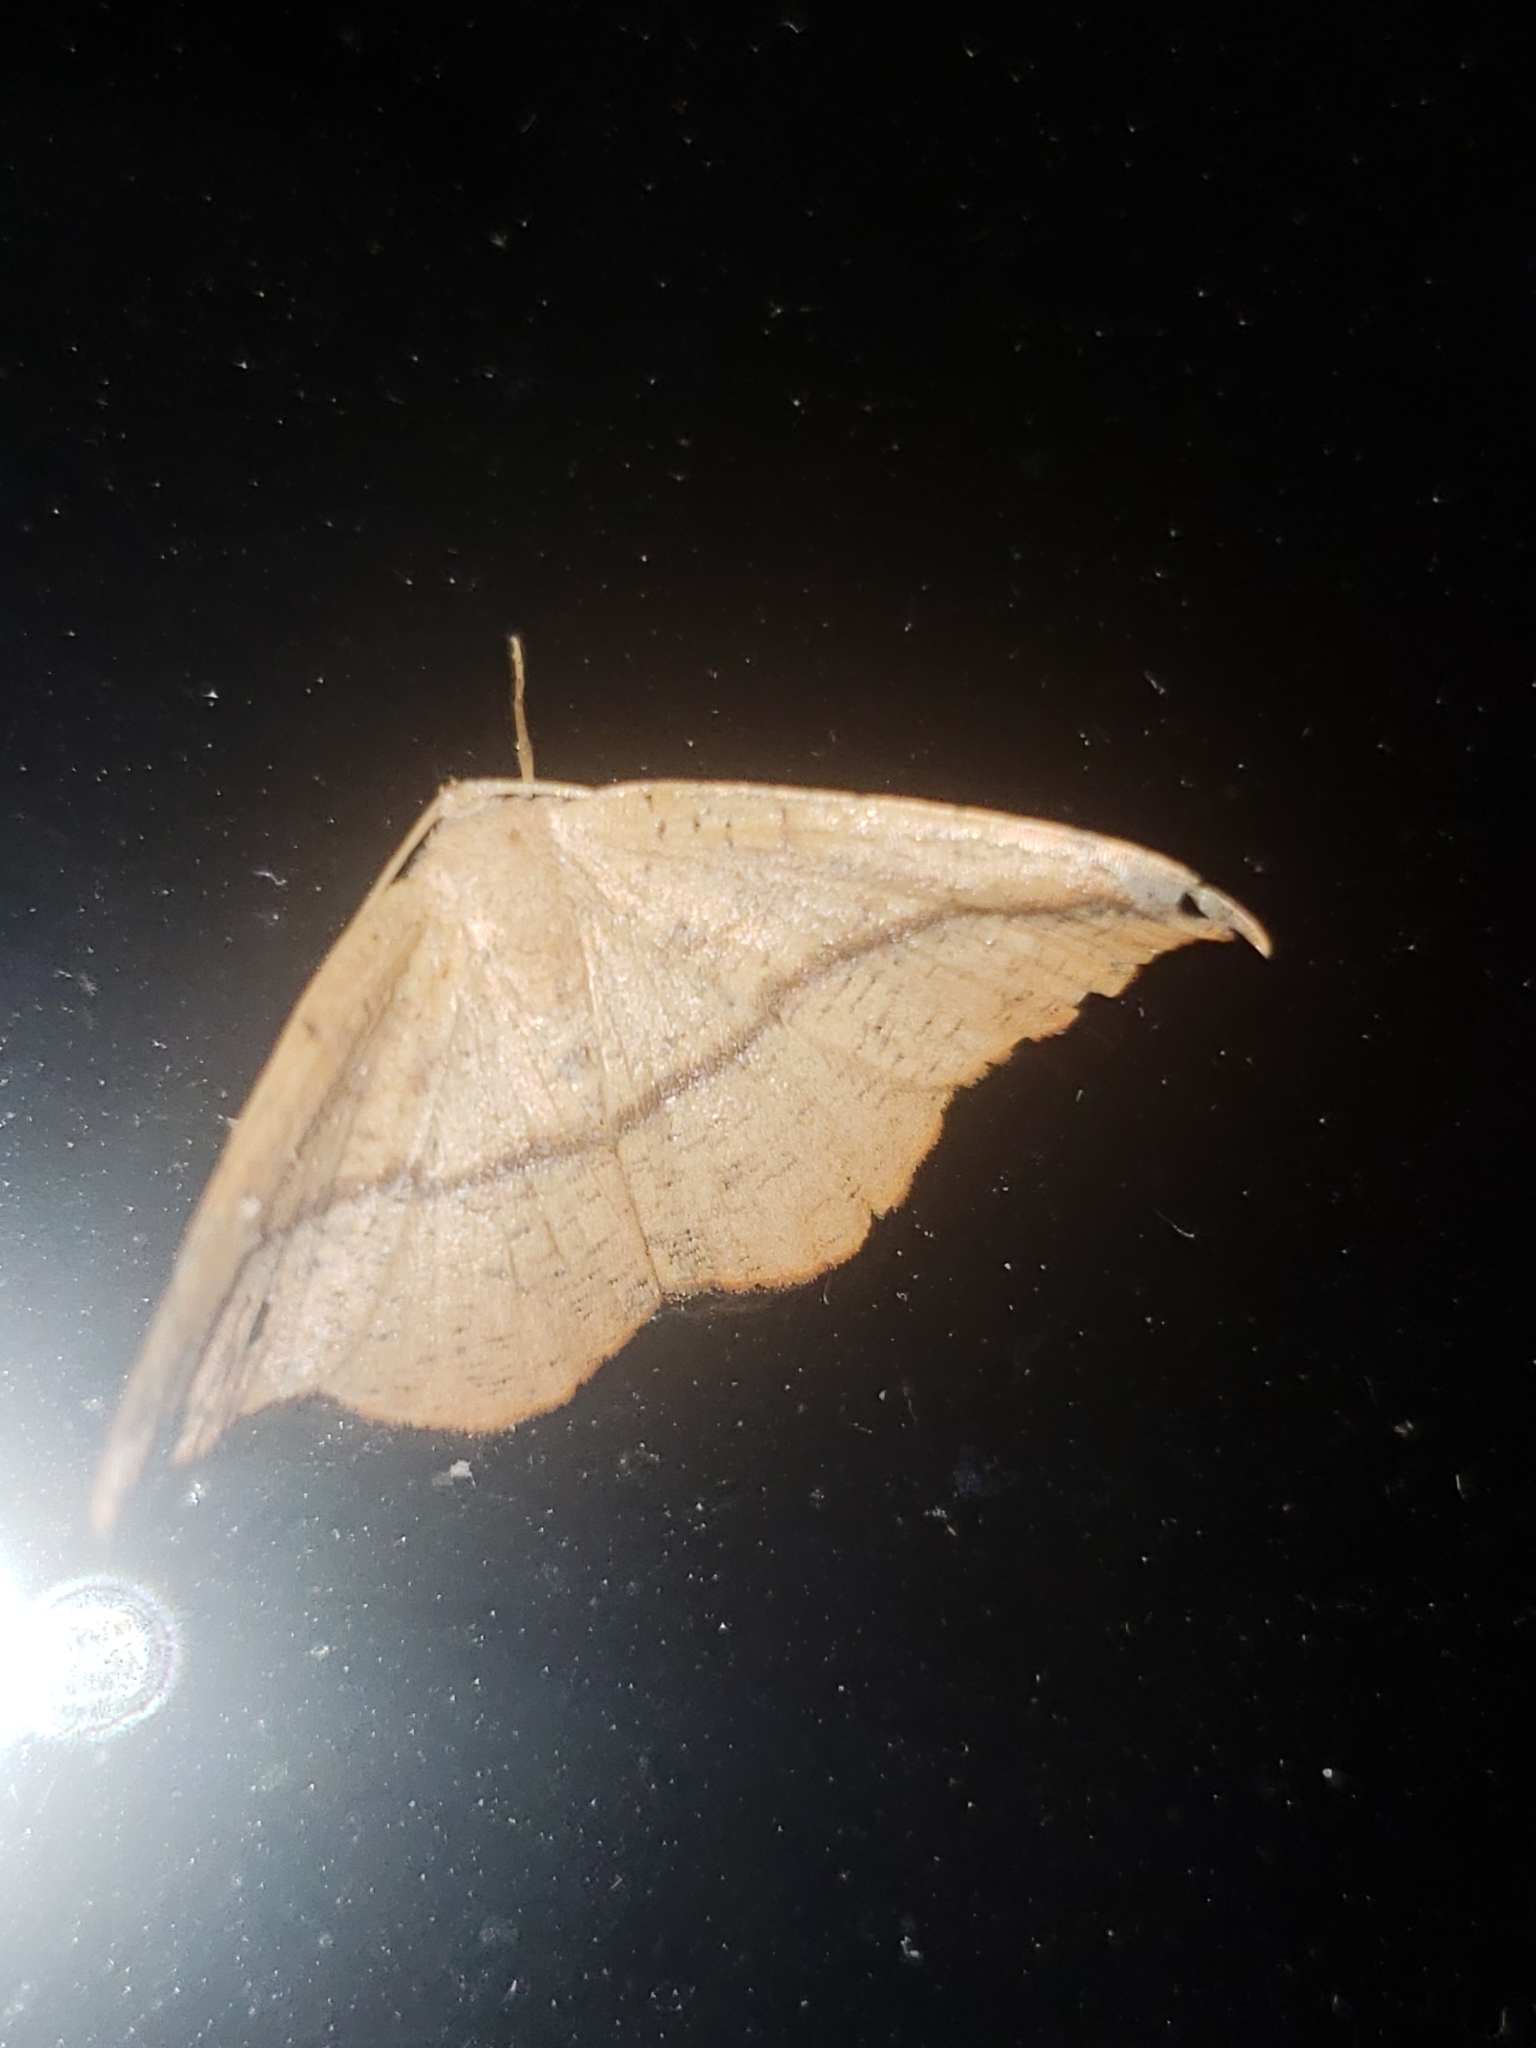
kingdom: Animalia
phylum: Arthropoda
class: Insecta
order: Lepidoptera
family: Geometridae
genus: Patalene
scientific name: Patalene olyzonaria
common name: Juniper geometer moth
